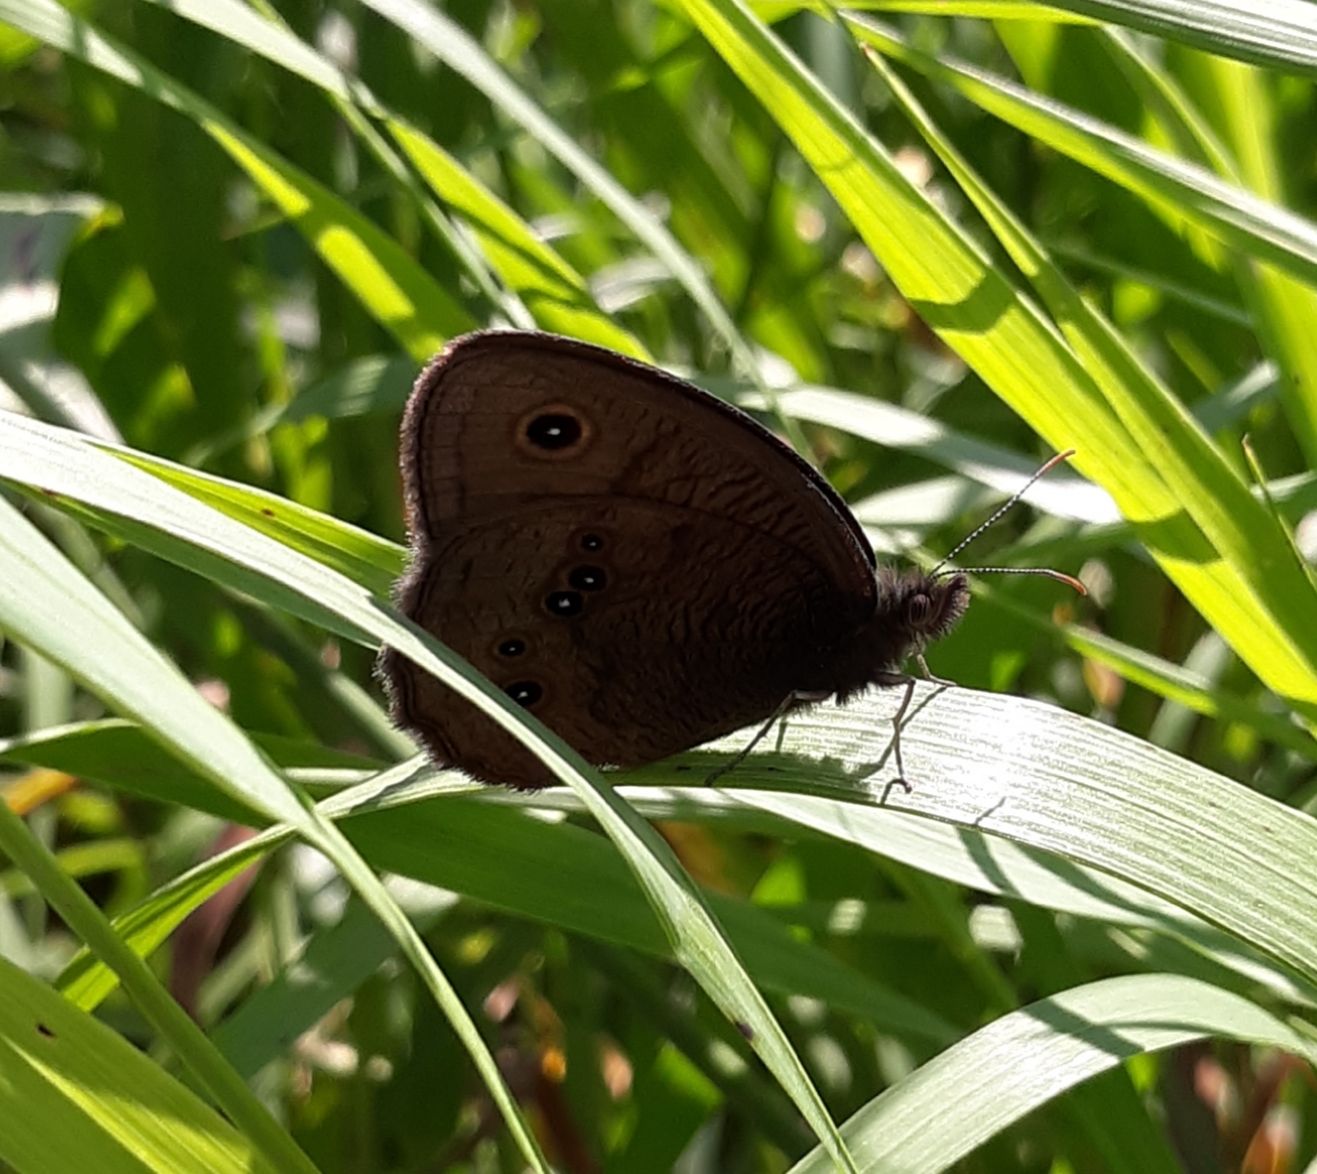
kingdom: Animalia
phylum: Arthropoda
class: Insecta
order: Lepidoptera
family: Nymphalidae
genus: Cercyonis
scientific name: Cercyonis pegala
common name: Common wood-nymph
